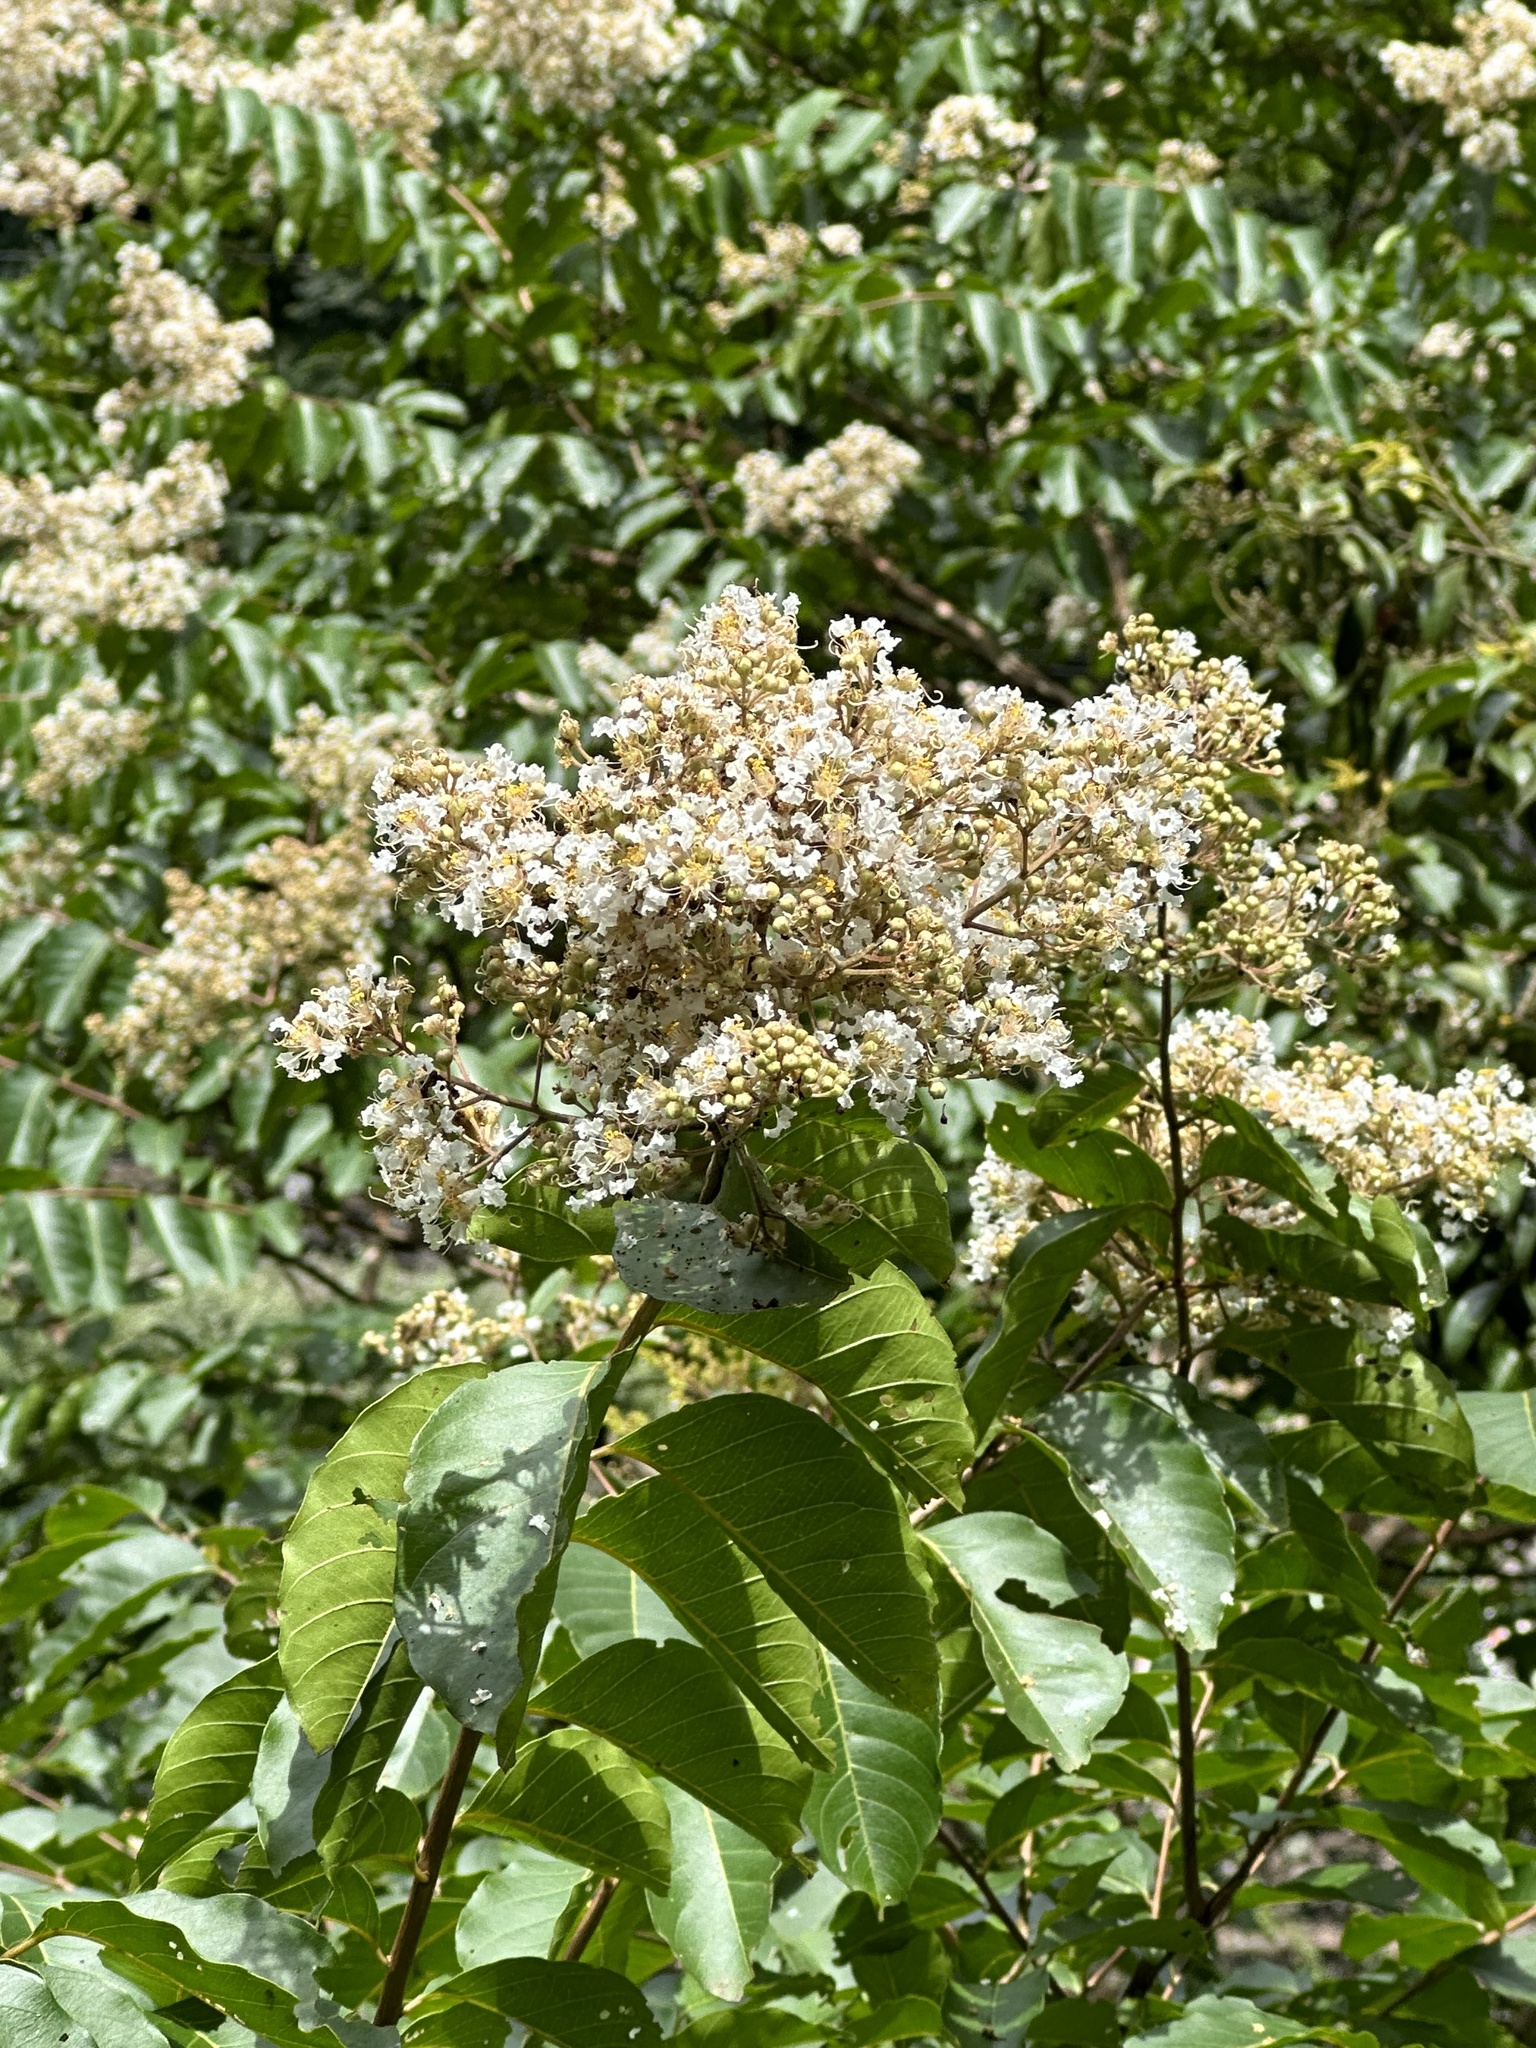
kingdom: Plantae
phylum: Tracheophyta
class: Magnoliopsida
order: Myrtales
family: Lythraceae
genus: Lagerstroemia
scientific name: Lagerstroemia subcostata
